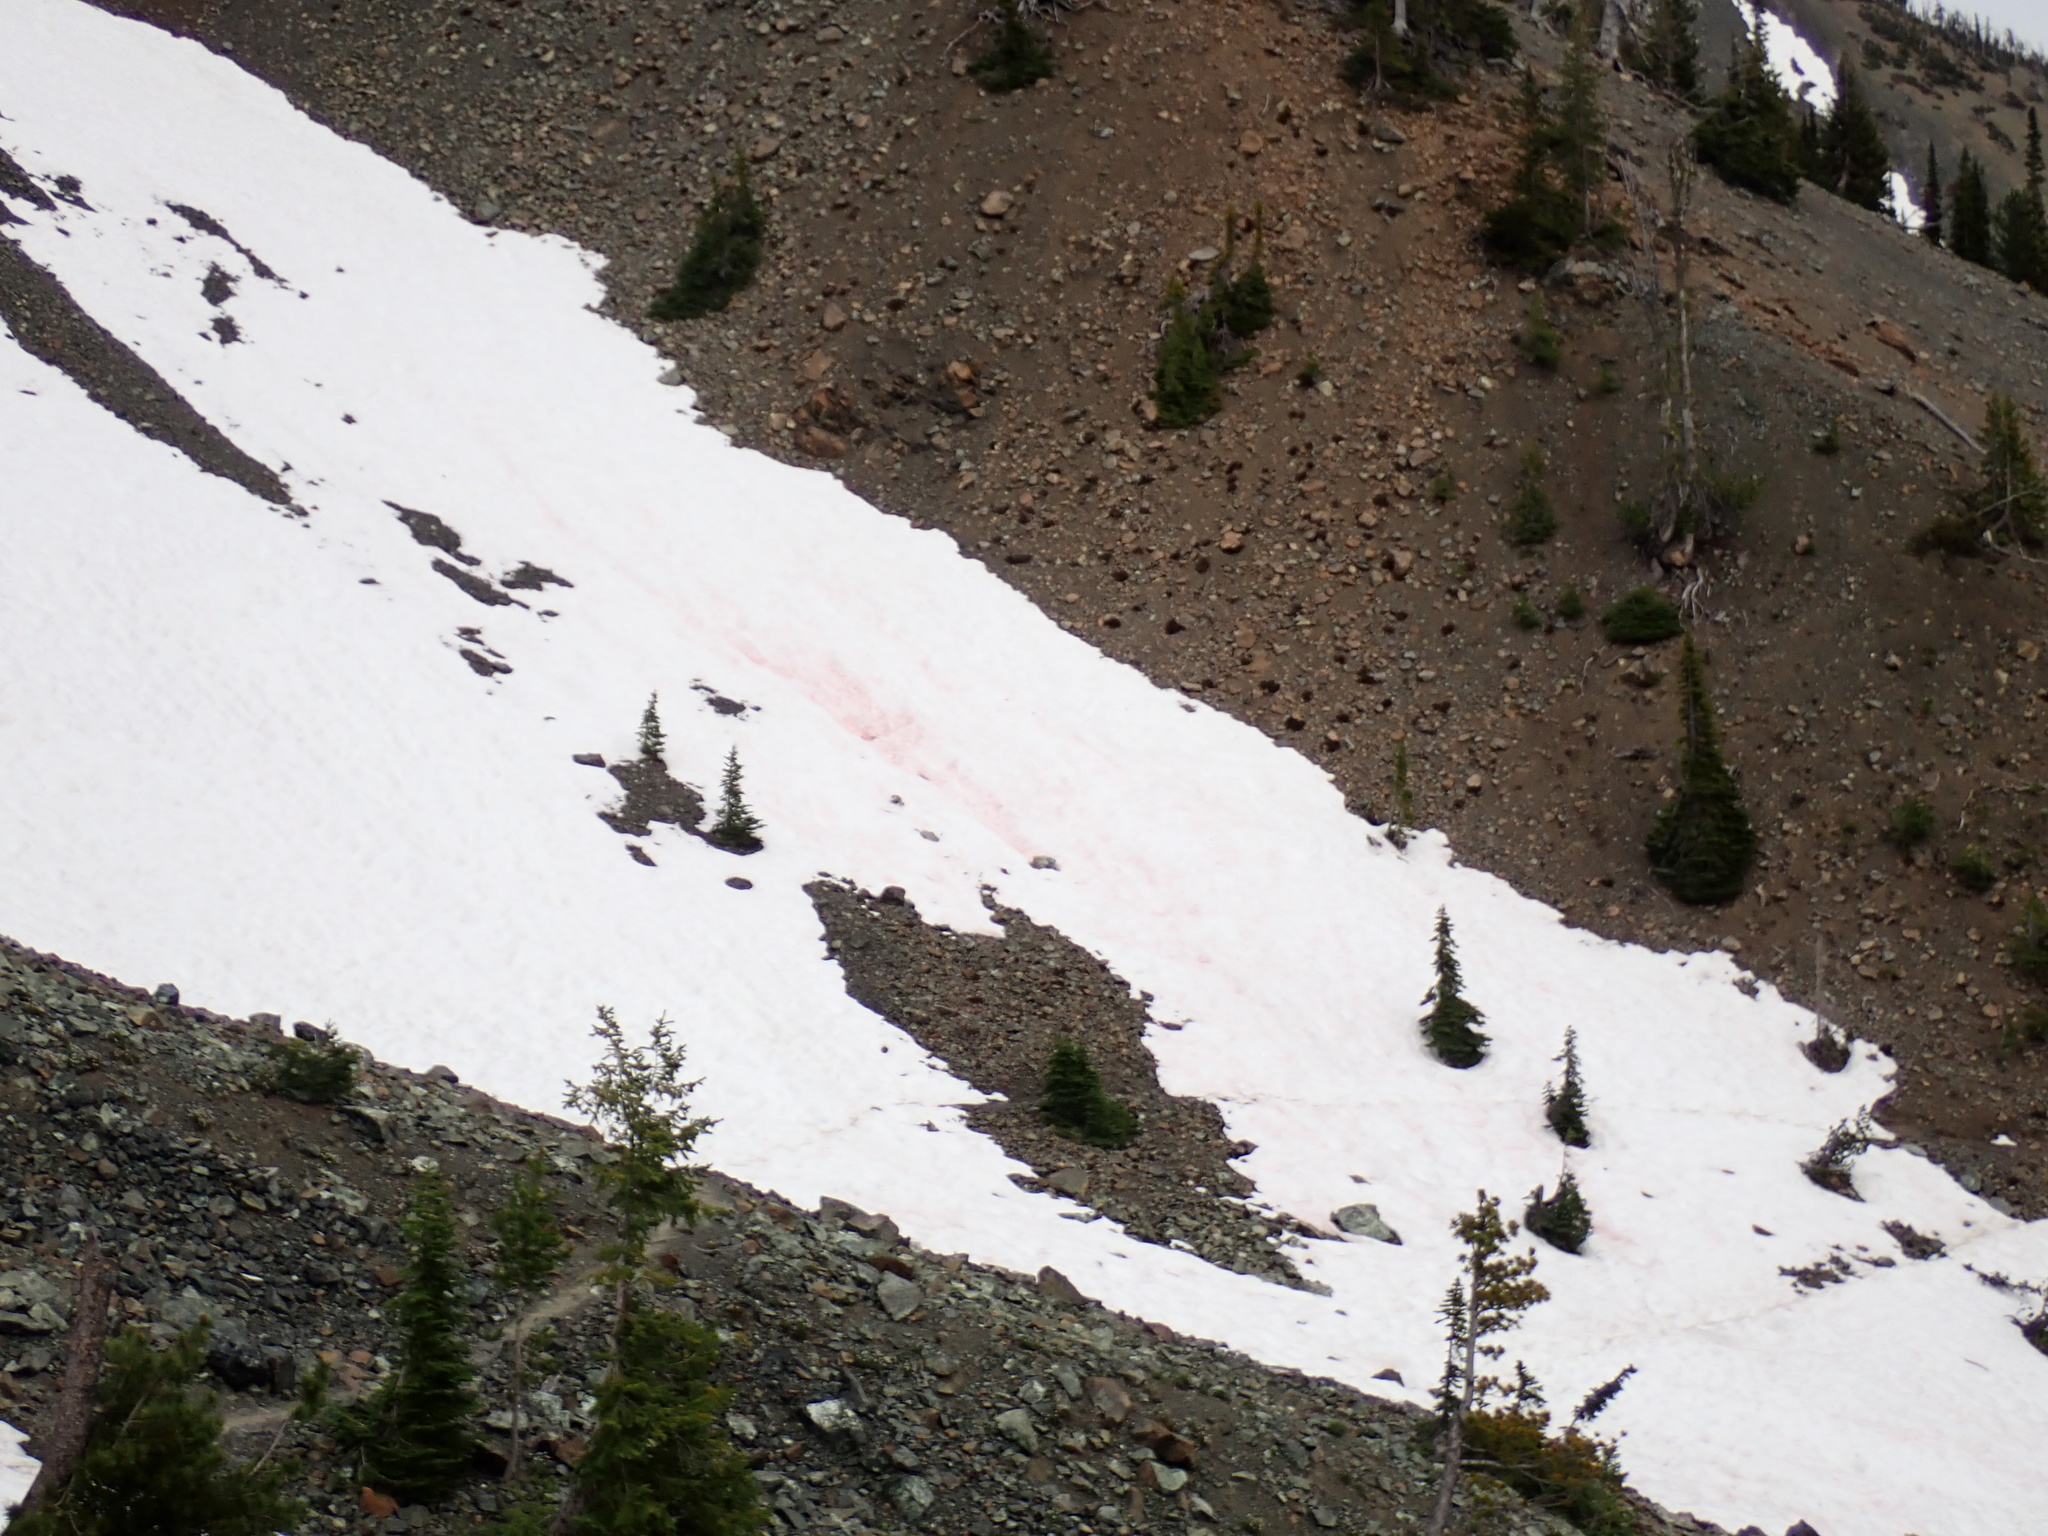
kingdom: Plantae
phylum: Chlorophyta
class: Chlorophyceae
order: Volvocales
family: Chlamydomonadaceae
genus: Chlamydomonas
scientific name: Chlamydomonas nivalis
